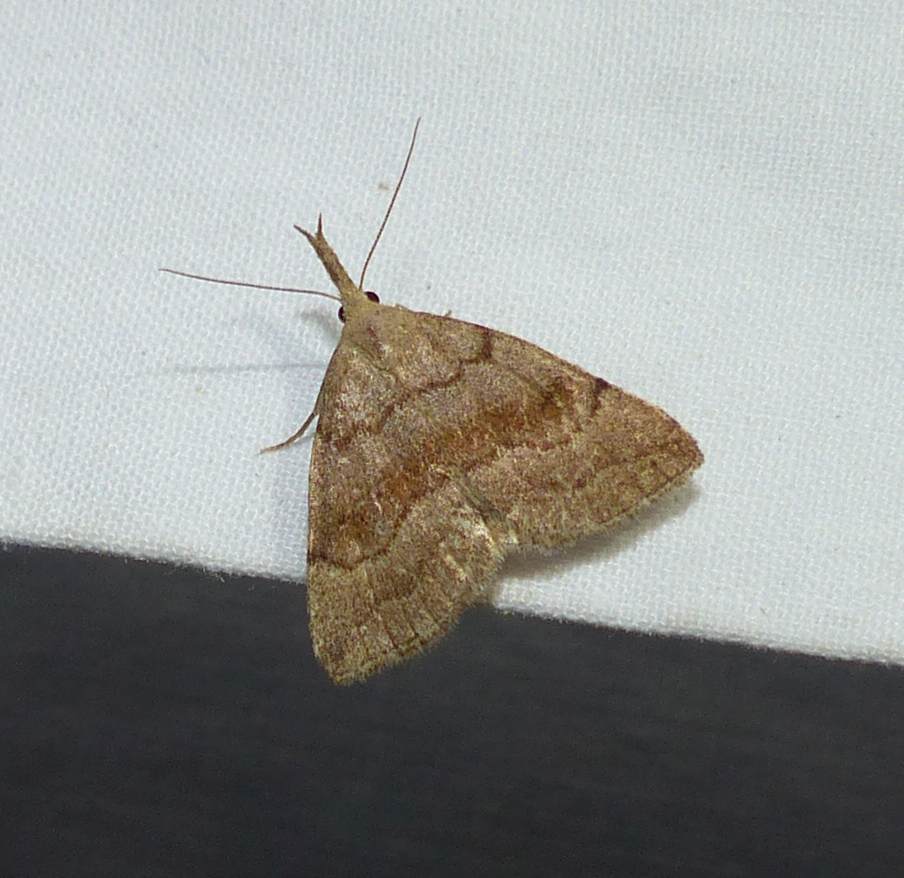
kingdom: Animalia
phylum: Arthropoda
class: Insecta
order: Lepidoptera
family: Erebidae
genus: Phalaenostola
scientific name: Phalaenostola metonalis
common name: Pale phalaenostola moth
